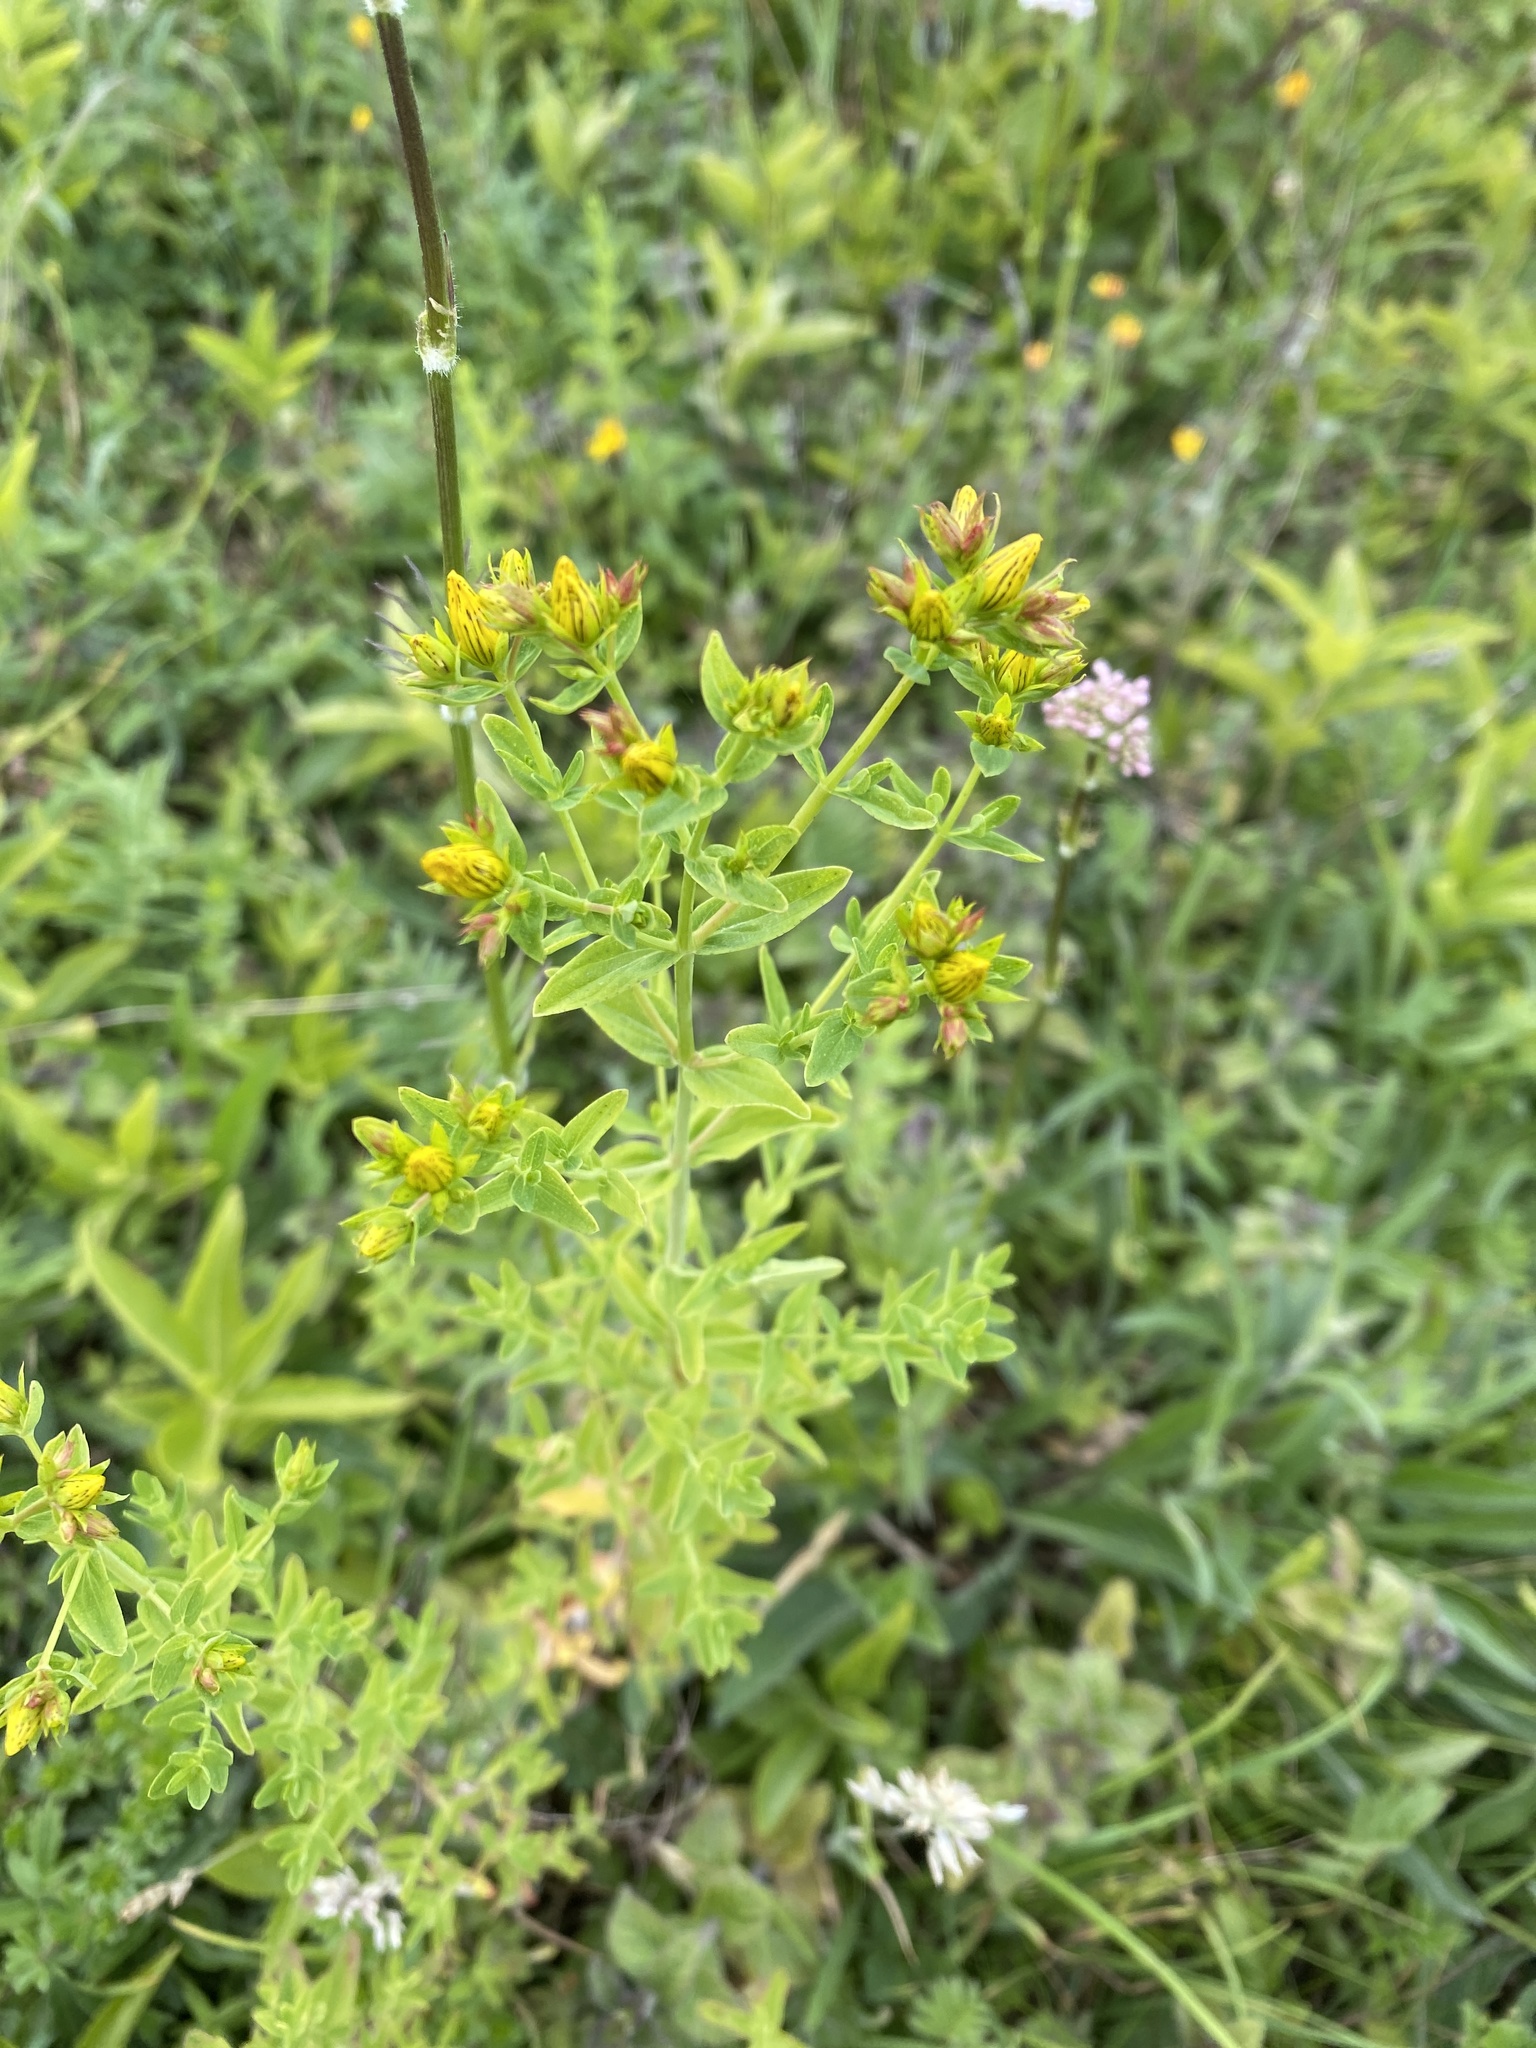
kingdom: Plantae
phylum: Tracheophyta
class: Magnoliopsida
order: Malpighiales
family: Hypericaceae
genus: Hypericum
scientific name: Hypericum perforatum
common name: Common st. johnswort
